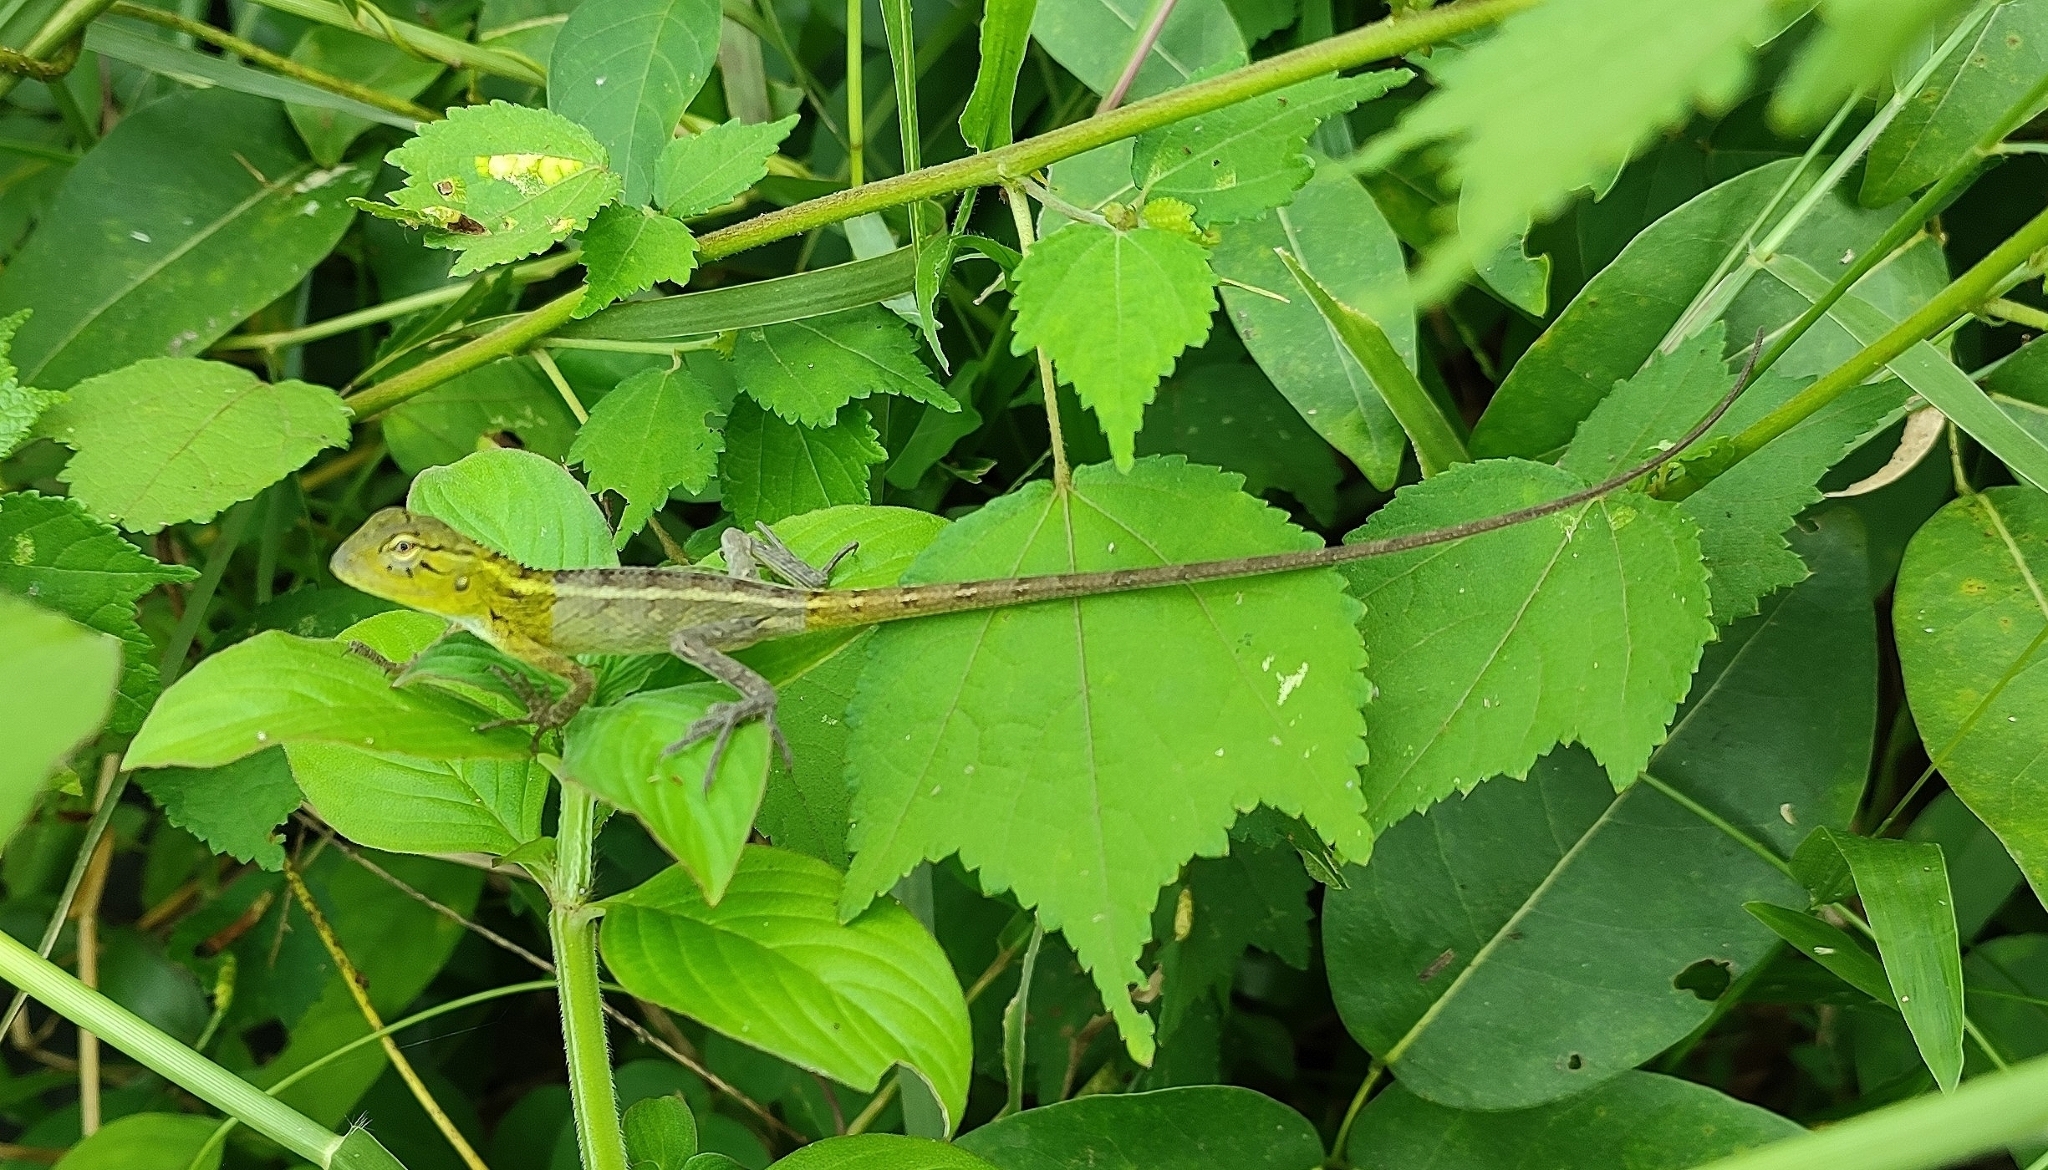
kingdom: Animalia
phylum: Chordata
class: Squamata
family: Agamidae
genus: Calotes
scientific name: Calotes versicolor
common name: Oriental garden lizard
